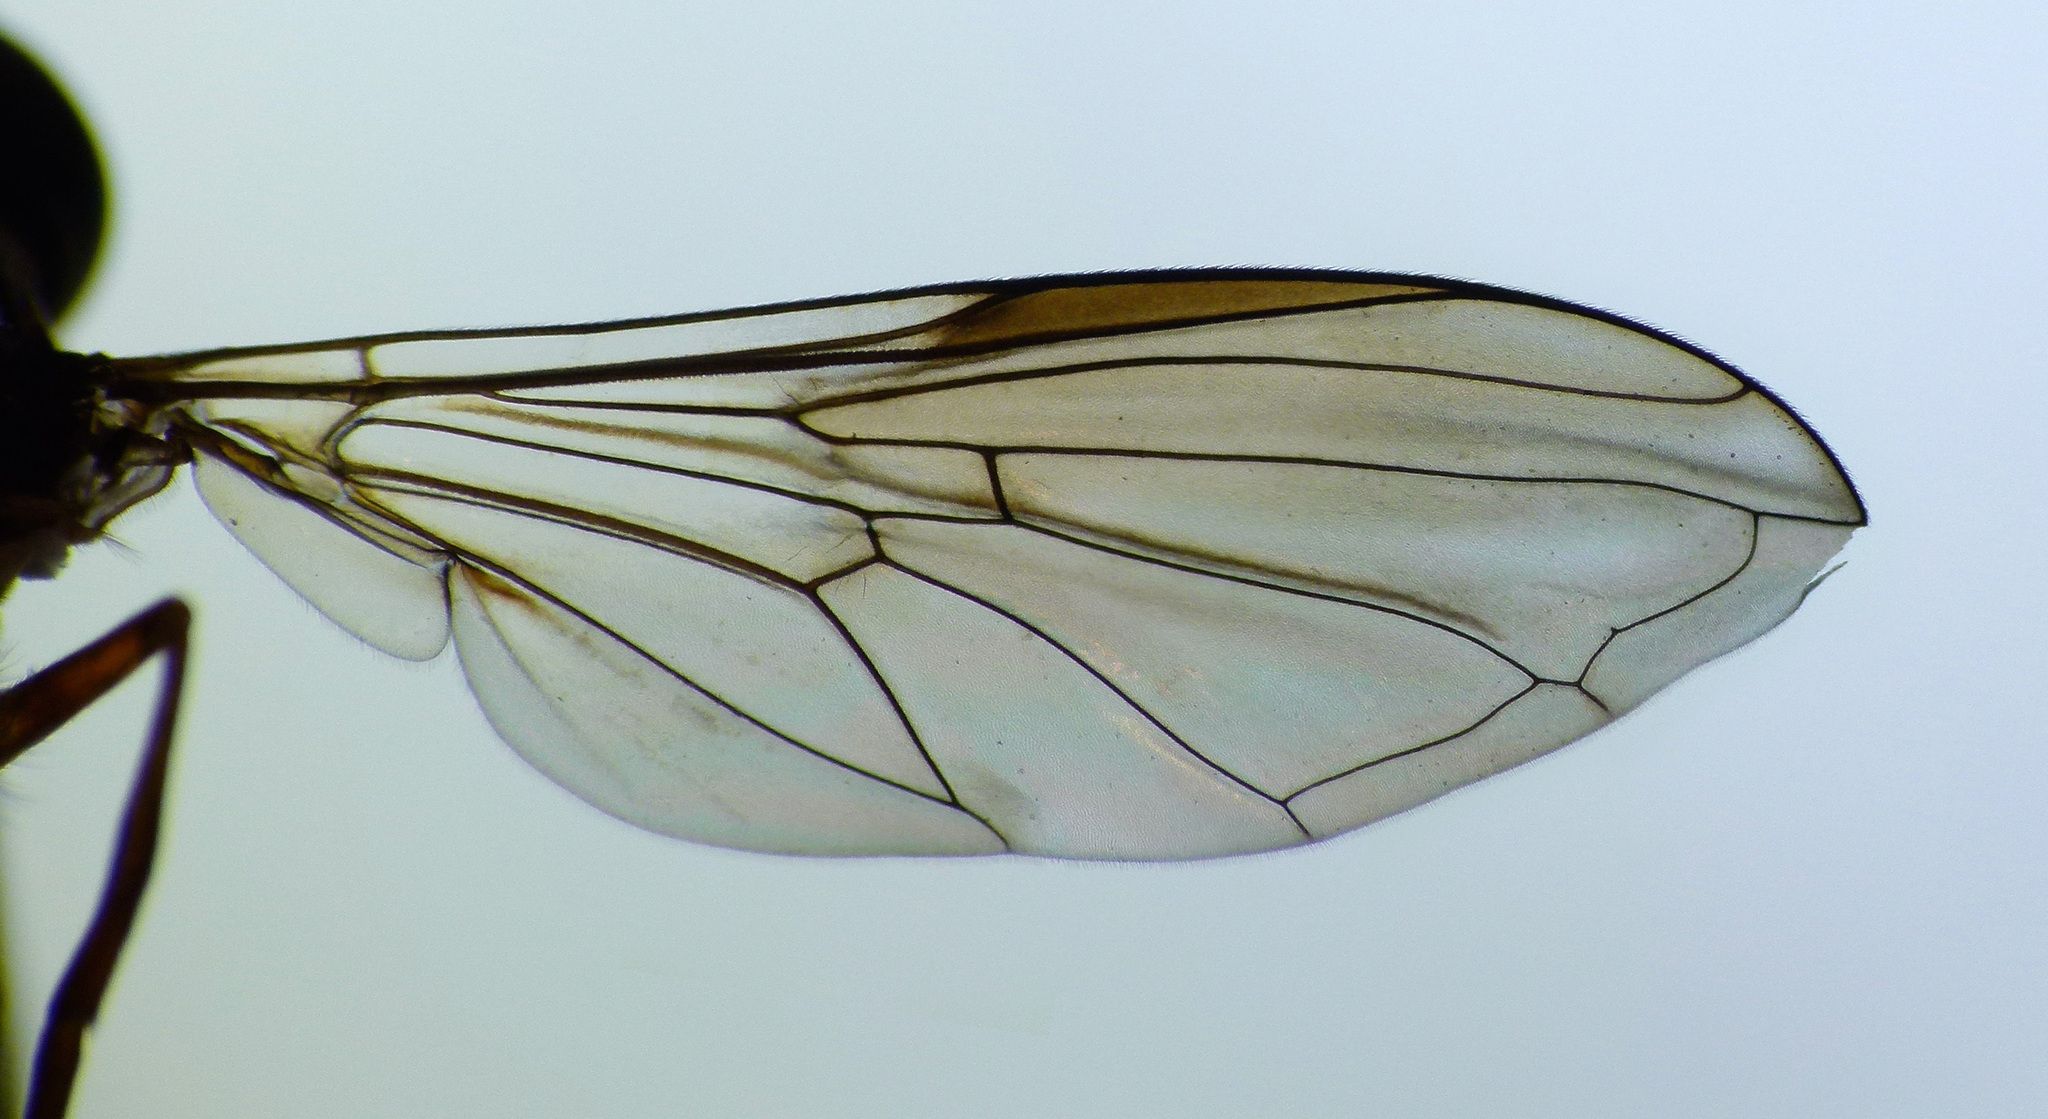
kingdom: Animalia
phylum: Arthropoda
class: Insecta
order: Diptera
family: Syrphidae
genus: Eocheilosia
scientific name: Eocheilosia harrisi
